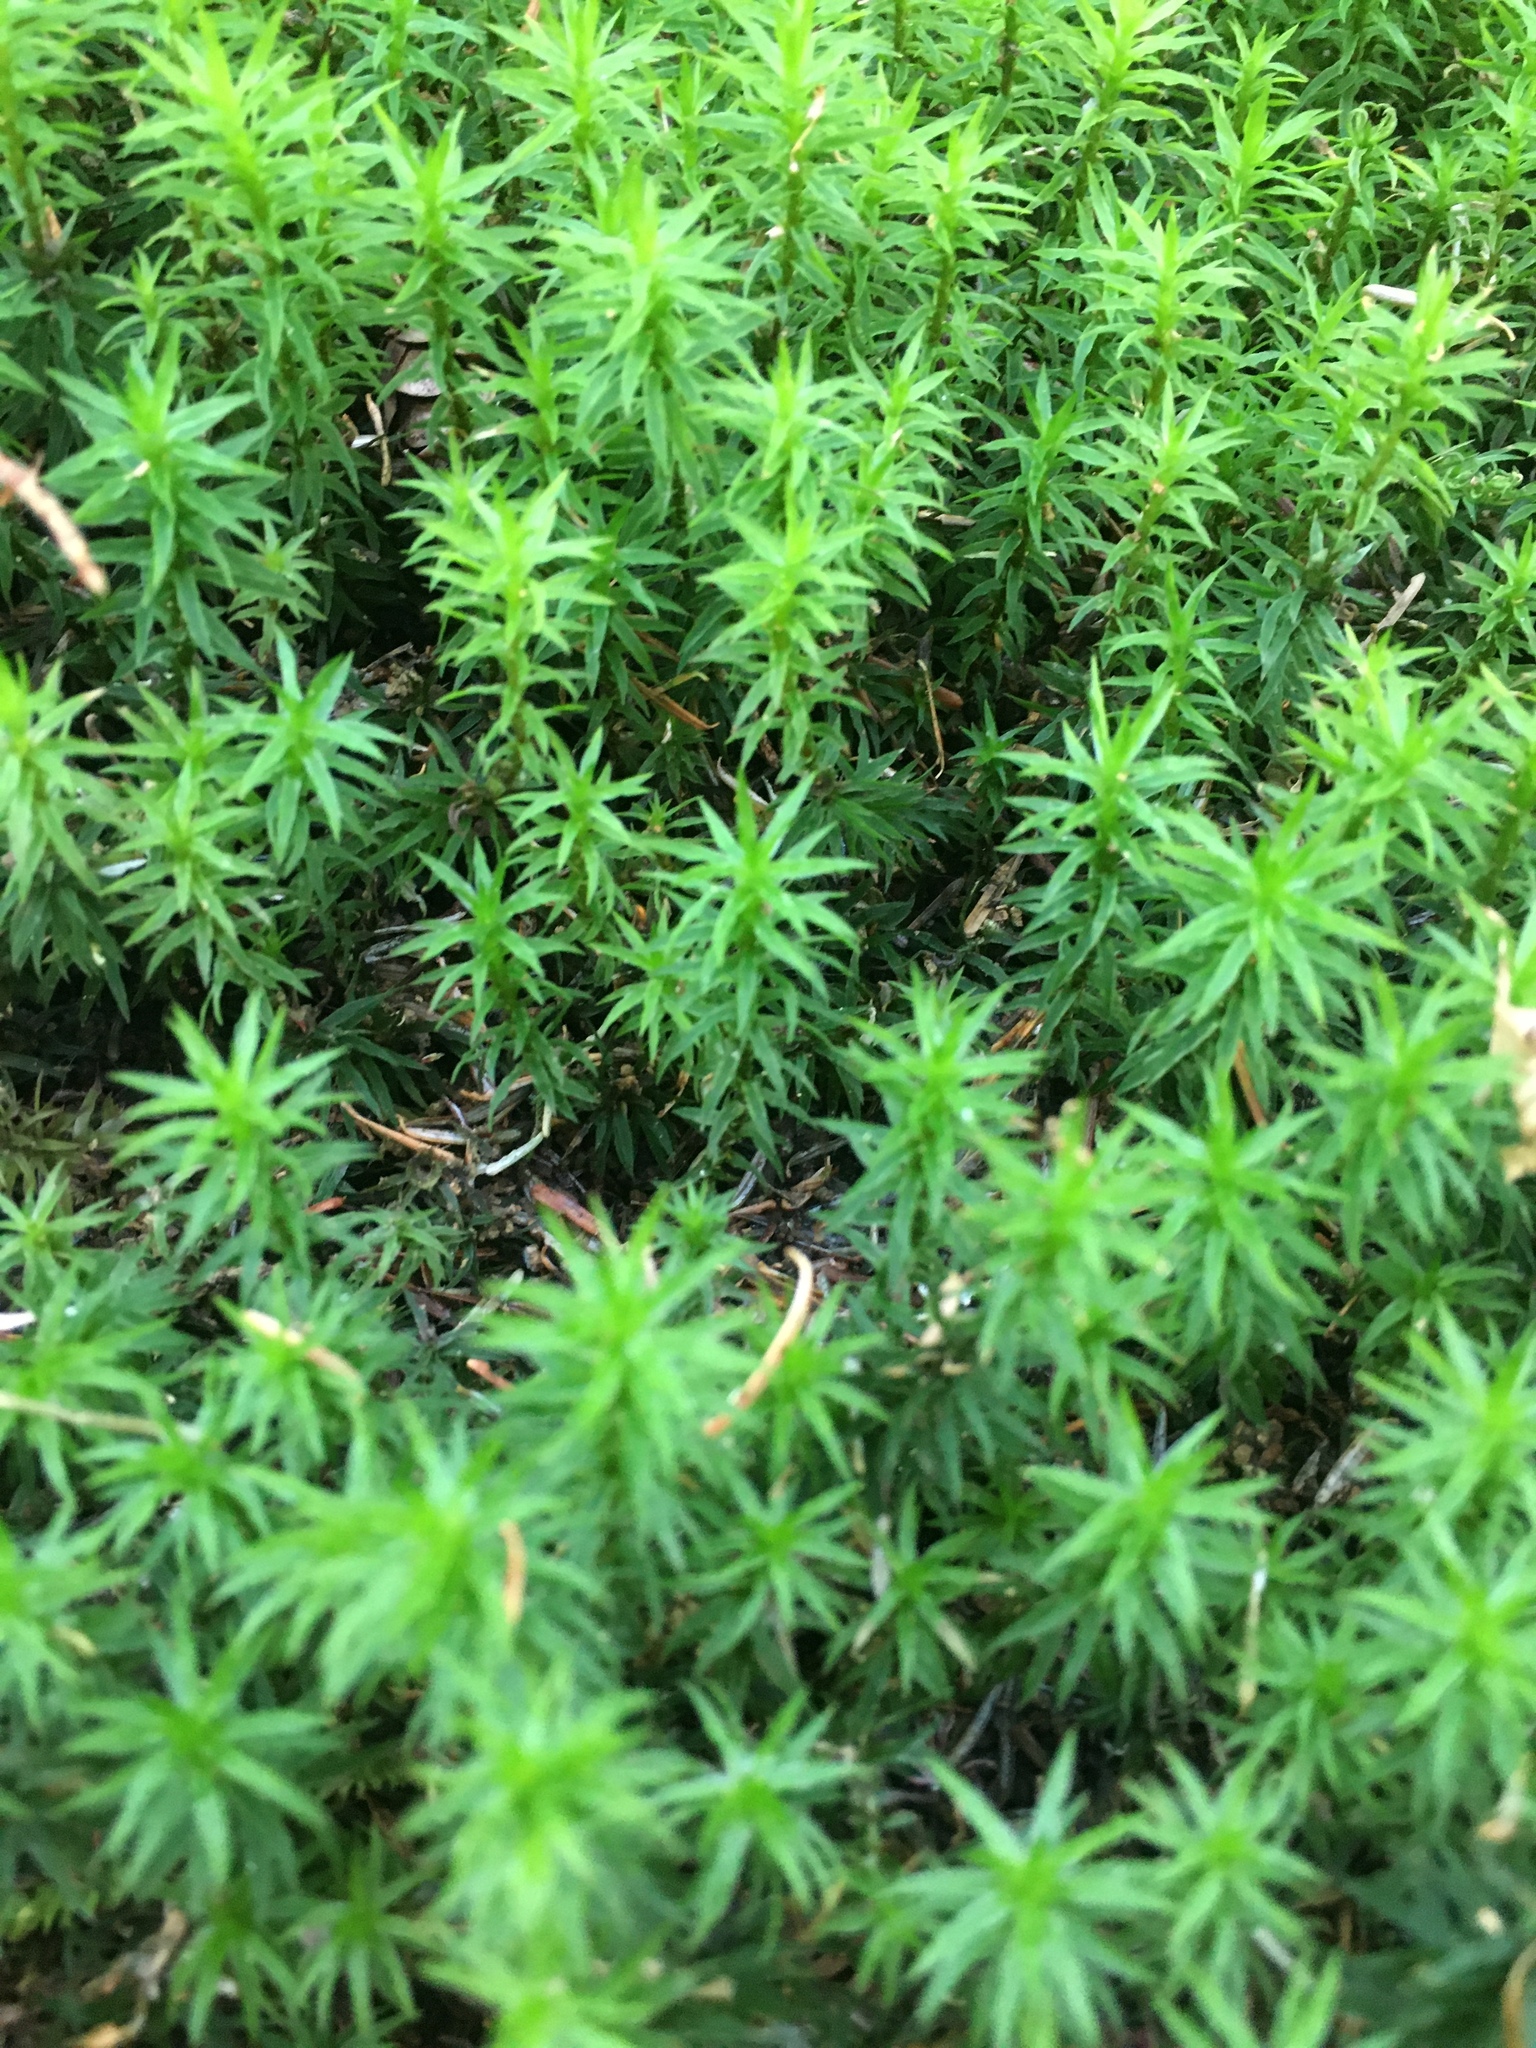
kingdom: Plantae
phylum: Bryophyta
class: Polytrichopsida
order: Polytrichales
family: Polytrichaceae
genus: Pogonatum
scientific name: Pogonatum contortum
